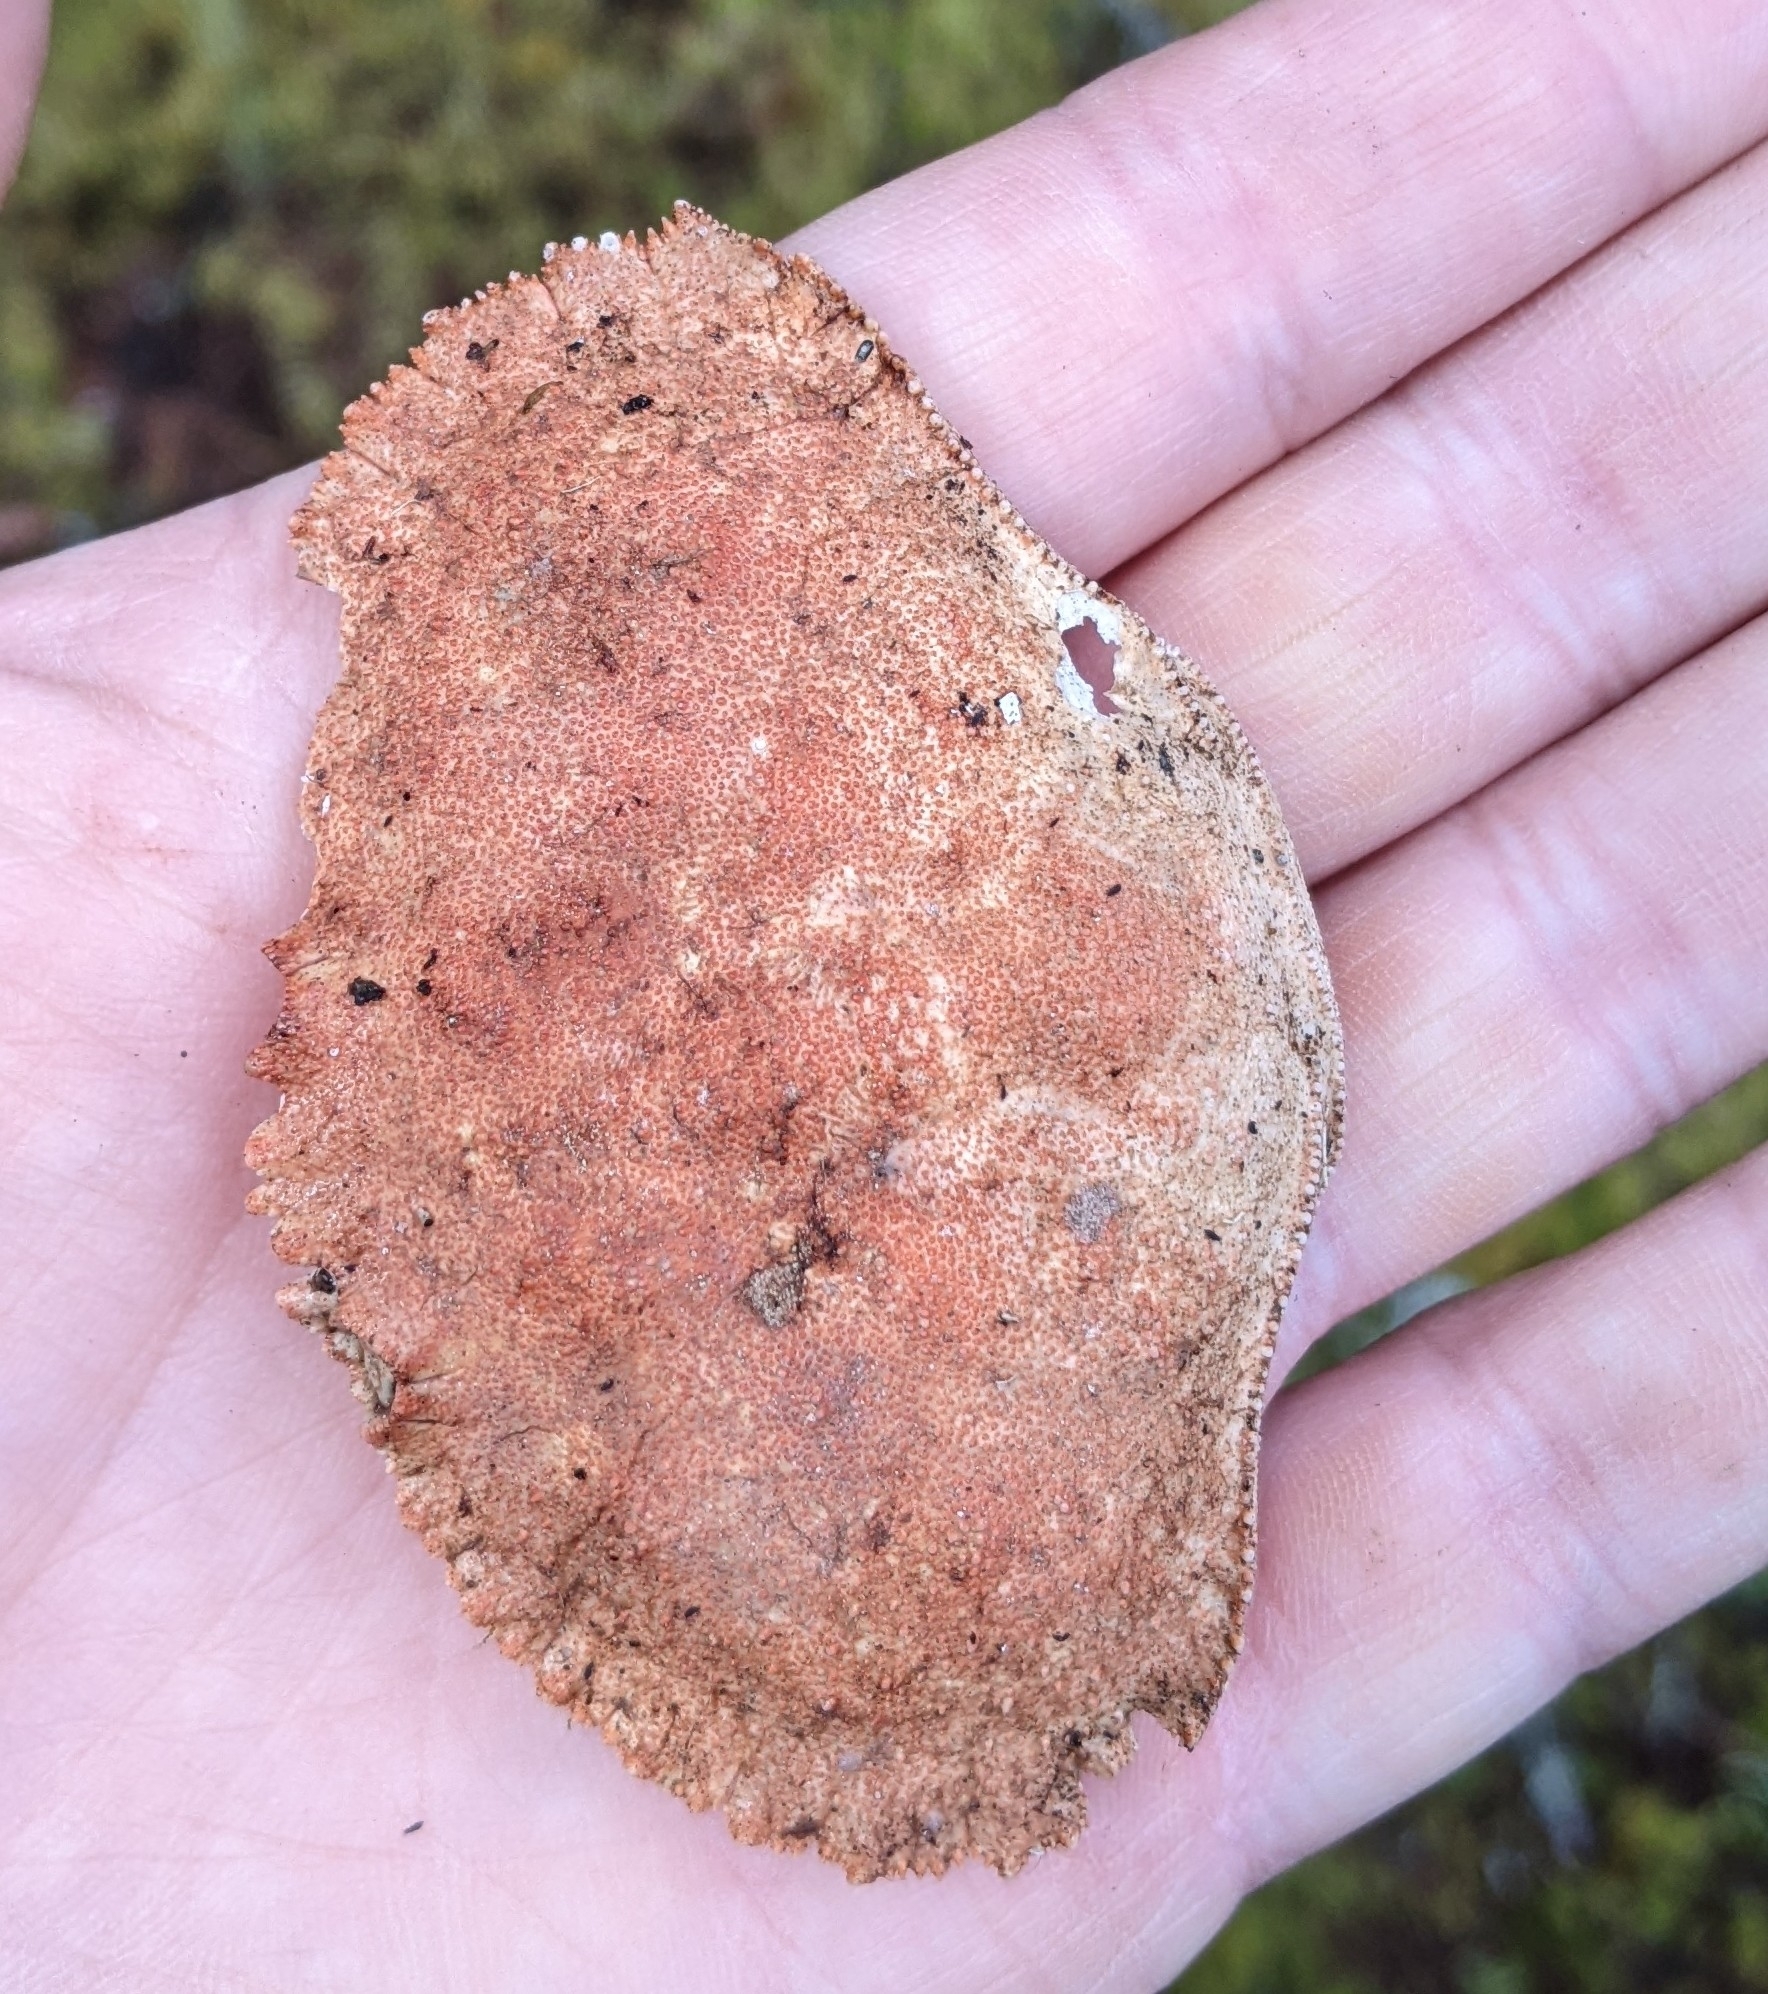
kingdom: Animalia
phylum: Arthropoda
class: Malacostraca
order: Decapoda
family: Cancridae
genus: Cancer
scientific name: Cancer borealis
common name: Jonah crab
